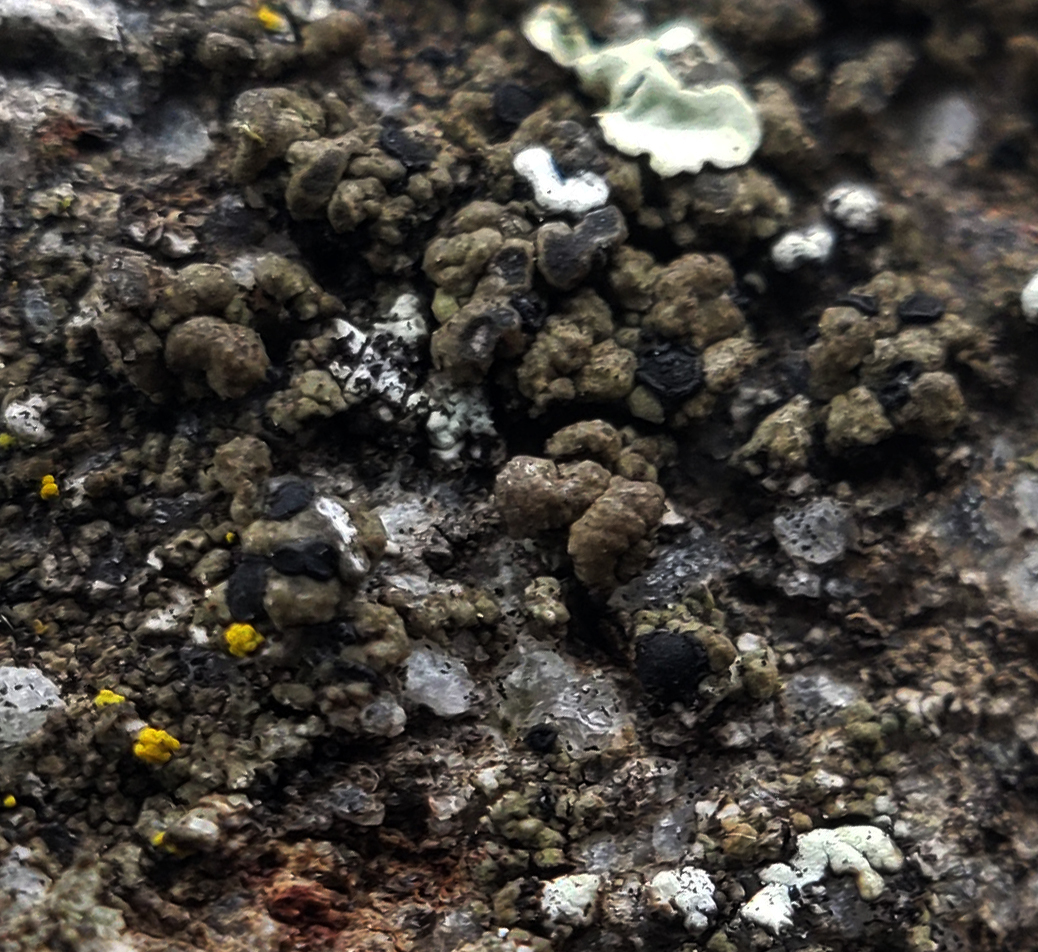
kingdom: Fungi
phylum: Ascomycota
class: Lecanoromycetes
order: Caliciales
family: Caliciaceae
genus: Buellia
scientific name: Buellia badia
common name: Parasitic button lichen
